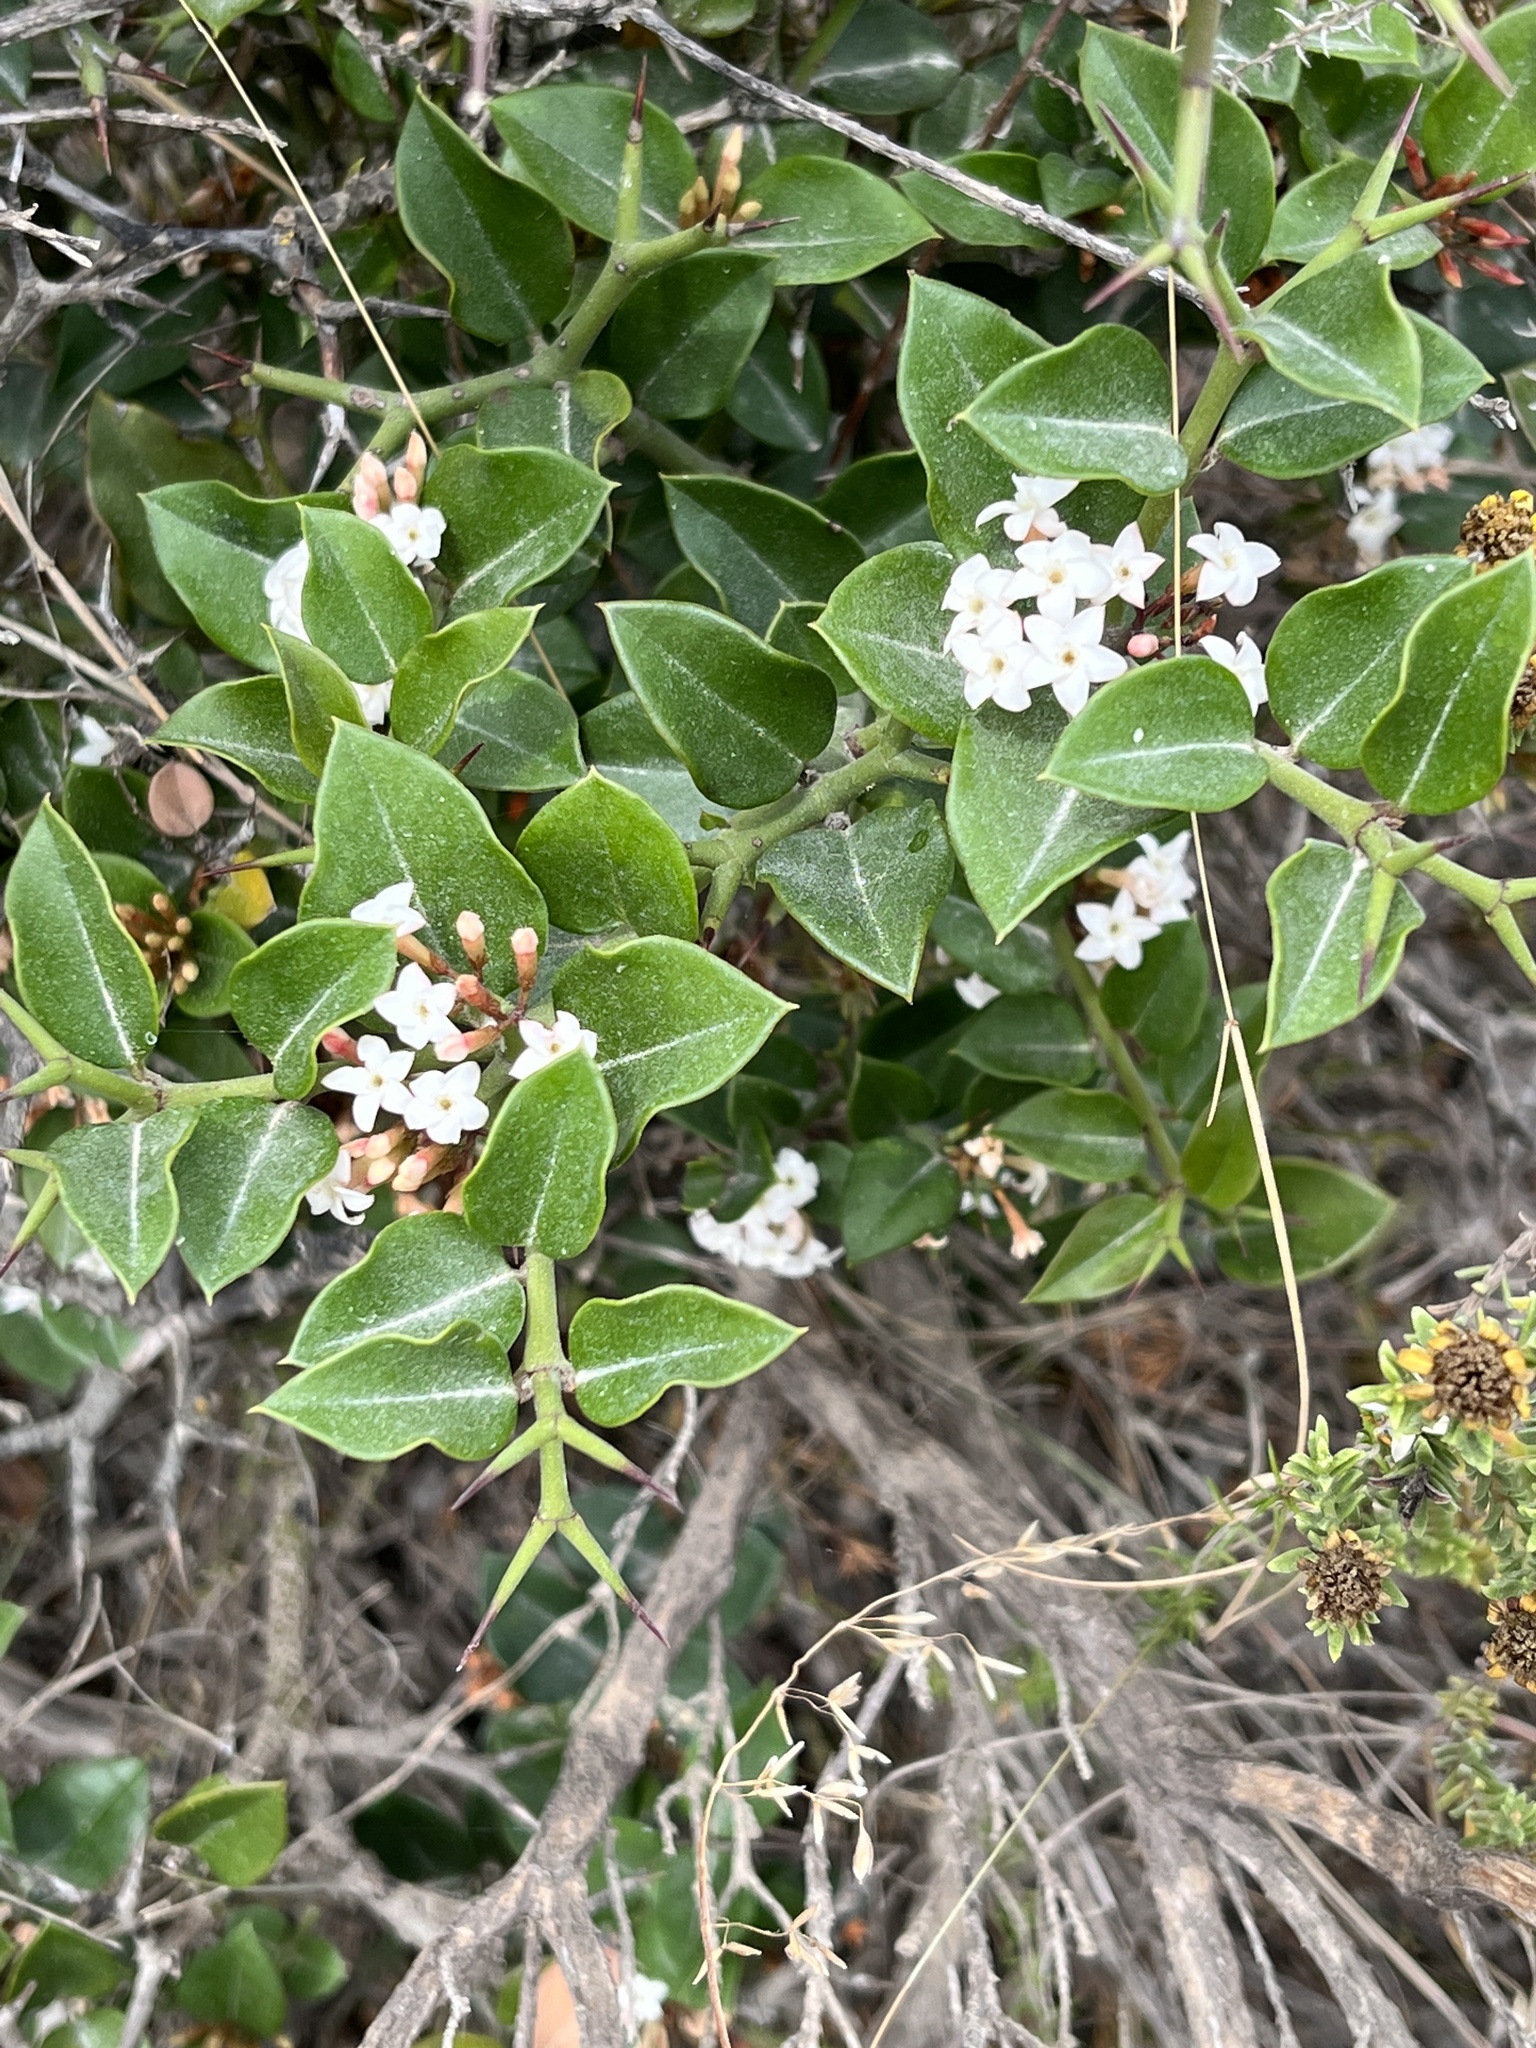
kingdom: Plantae
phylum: Tracheophyta
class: Magnoliopsida
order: Gentianales
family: Apocynaceae
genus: Carissa
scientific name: Carissa bispinosa
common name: Forest num-num
